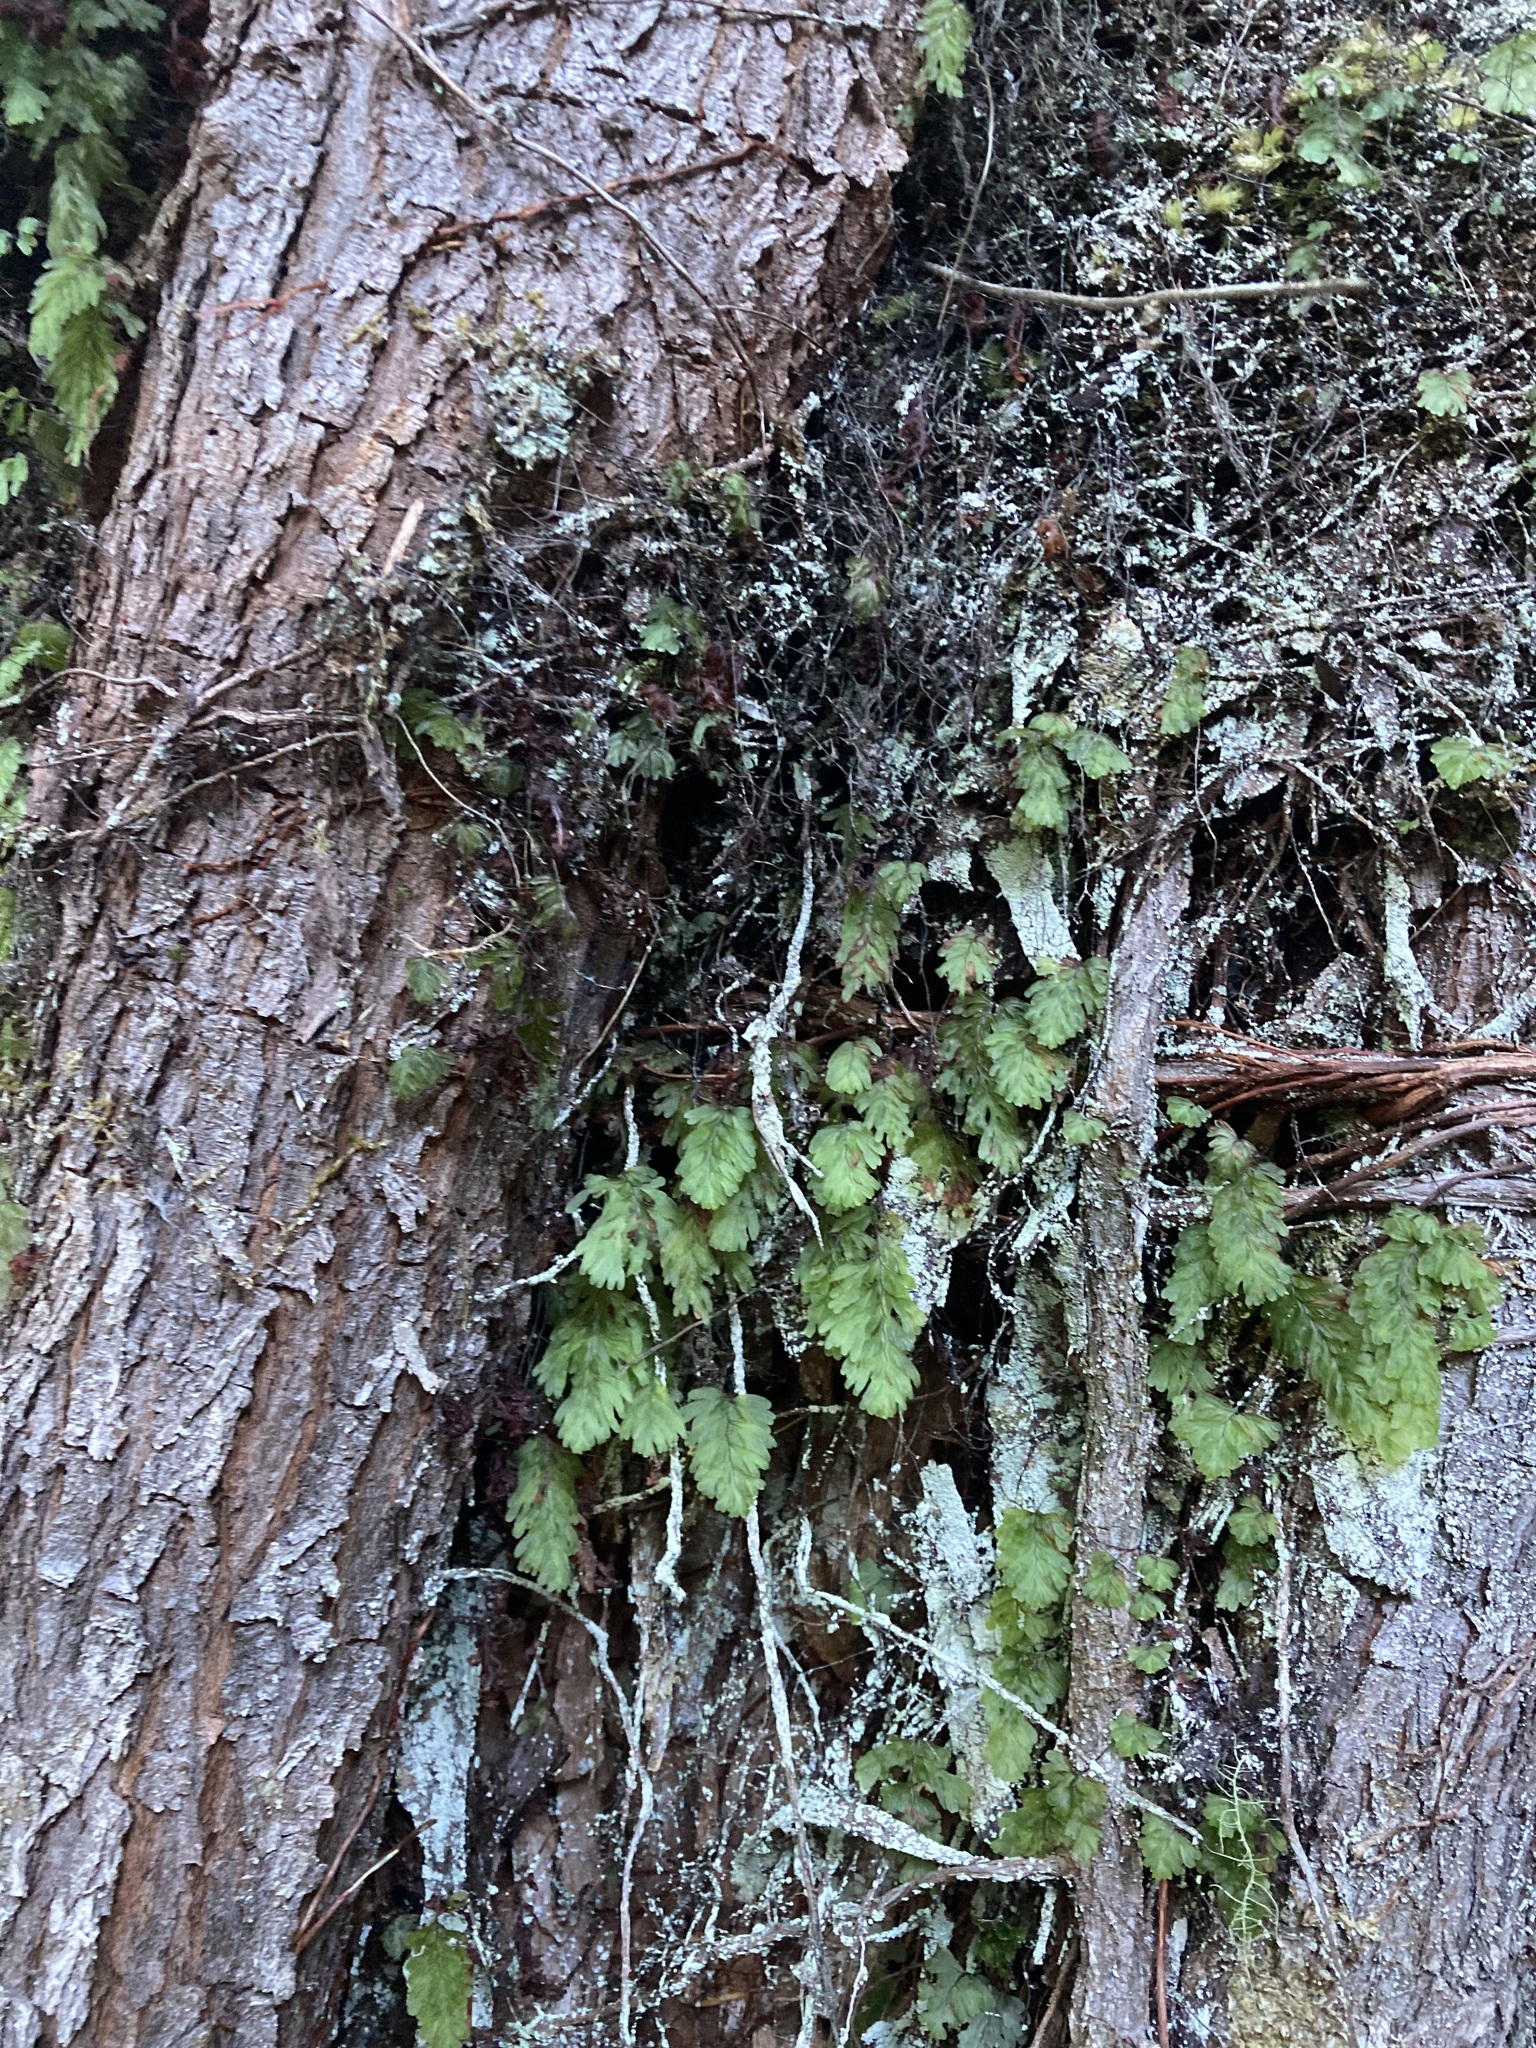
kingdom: Plantae
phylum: Tracheophyta
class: Polypodiopsida
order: Hymenophyllales
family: Hymenophyllaceae
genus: Hymenophyllum
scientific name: Hymenophyllum rarum
